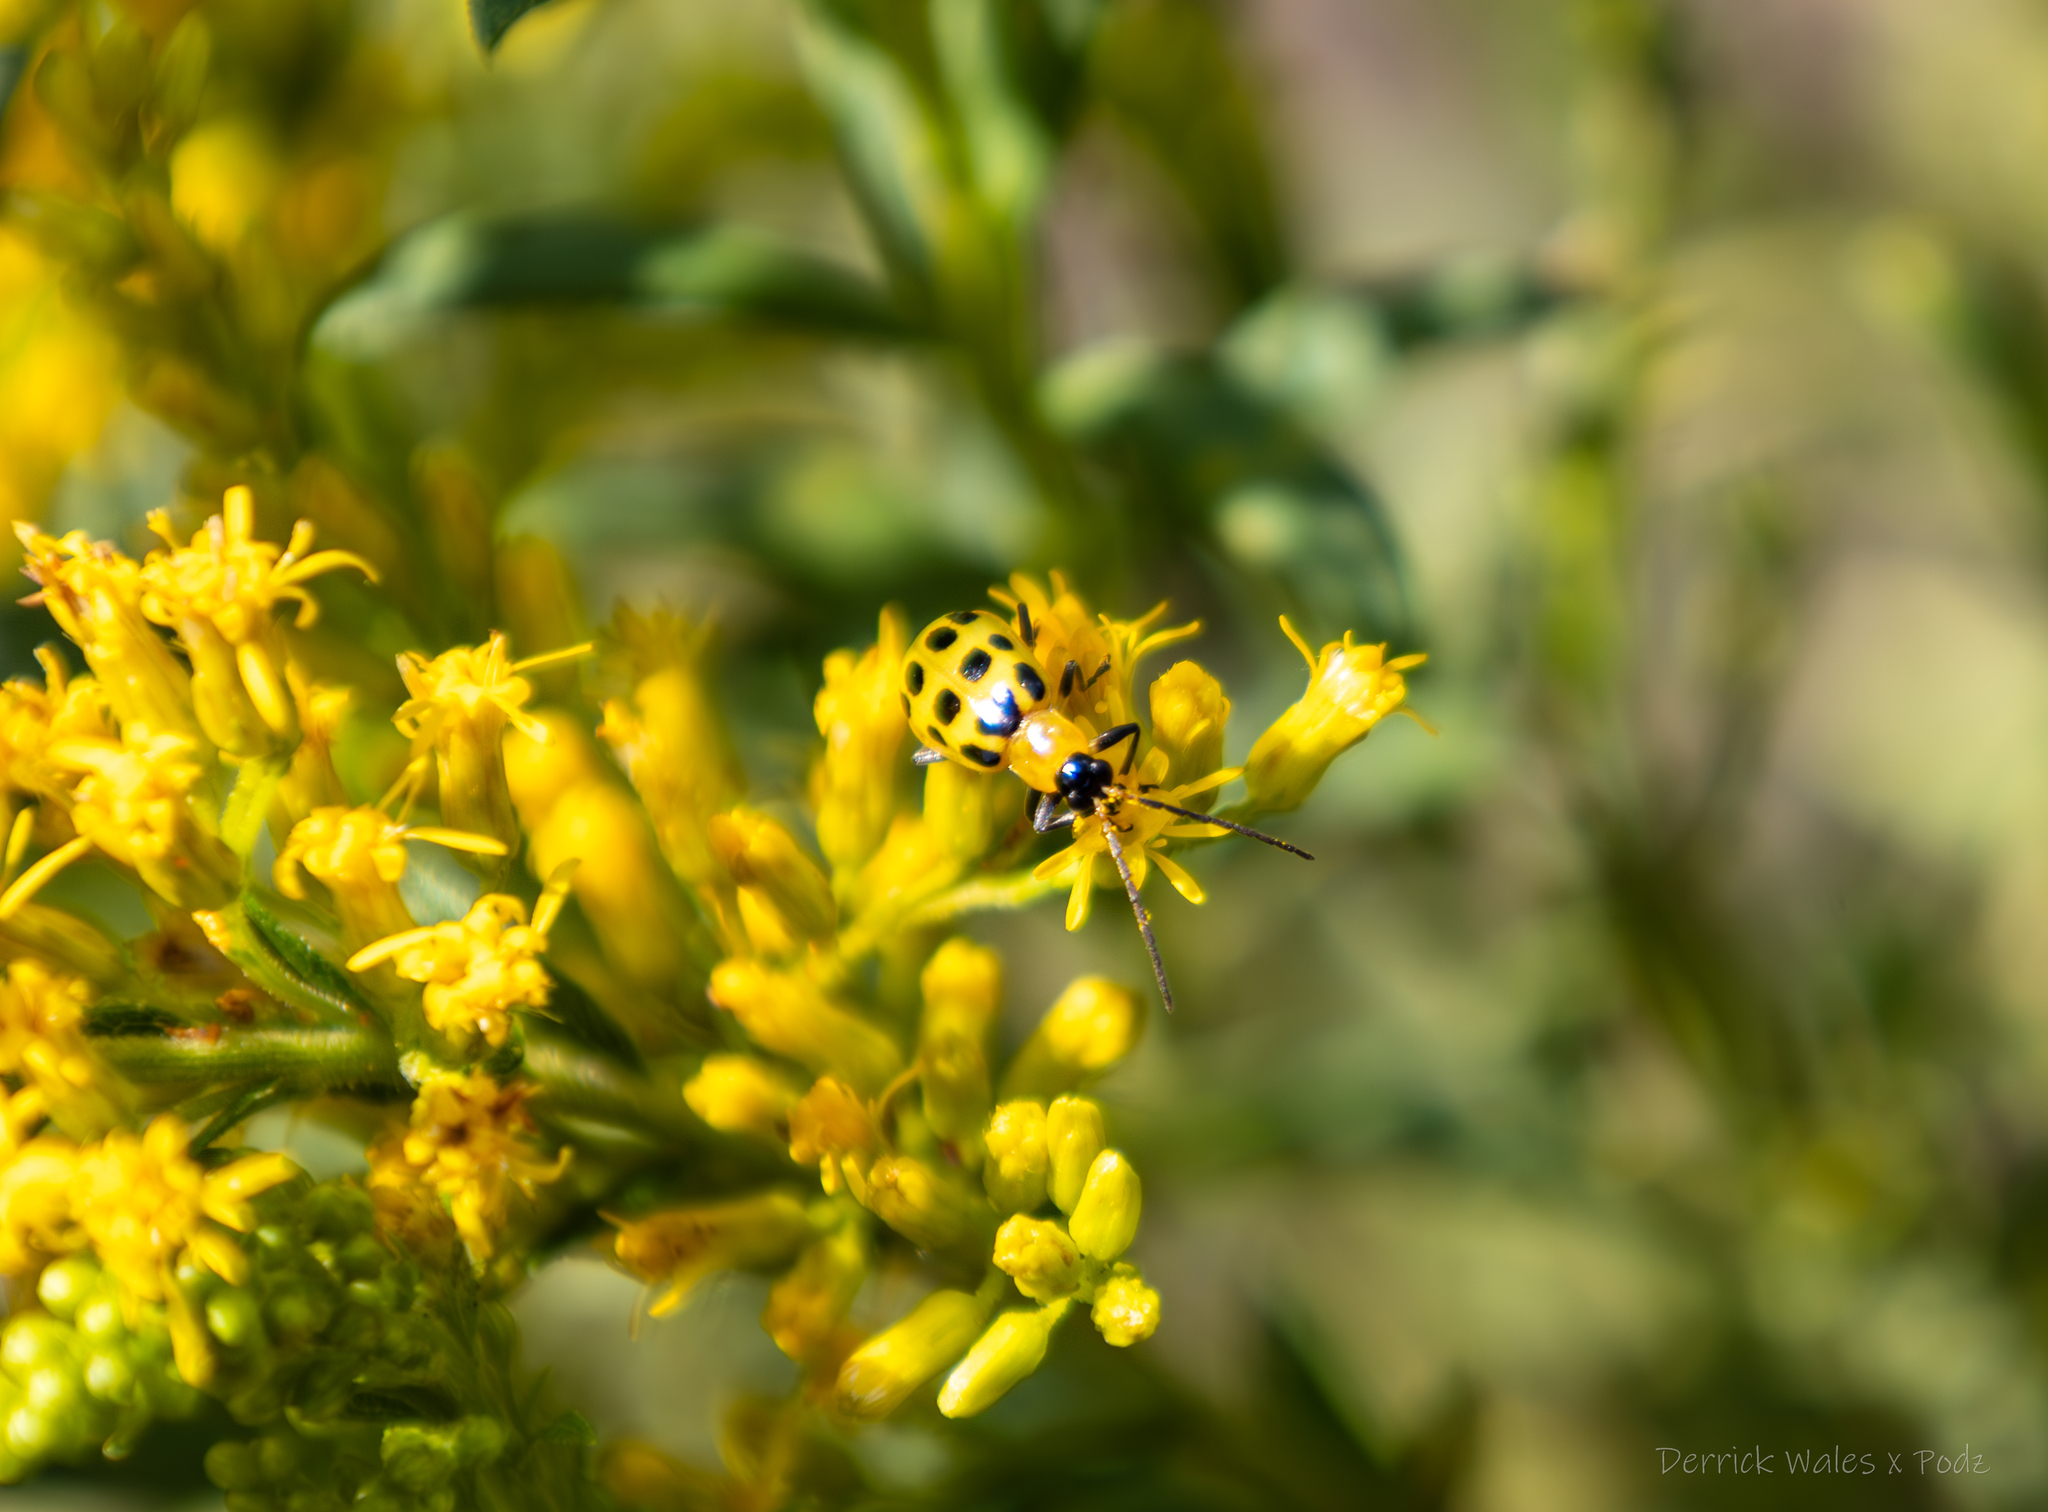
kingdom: Animalia
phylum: Arthropoda
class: Insecta
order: Coleoptera
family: Chrysomelidae
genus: Diabrotica
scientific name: Diabrotica undecimpunctata
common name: Spotted cucumber beetle
